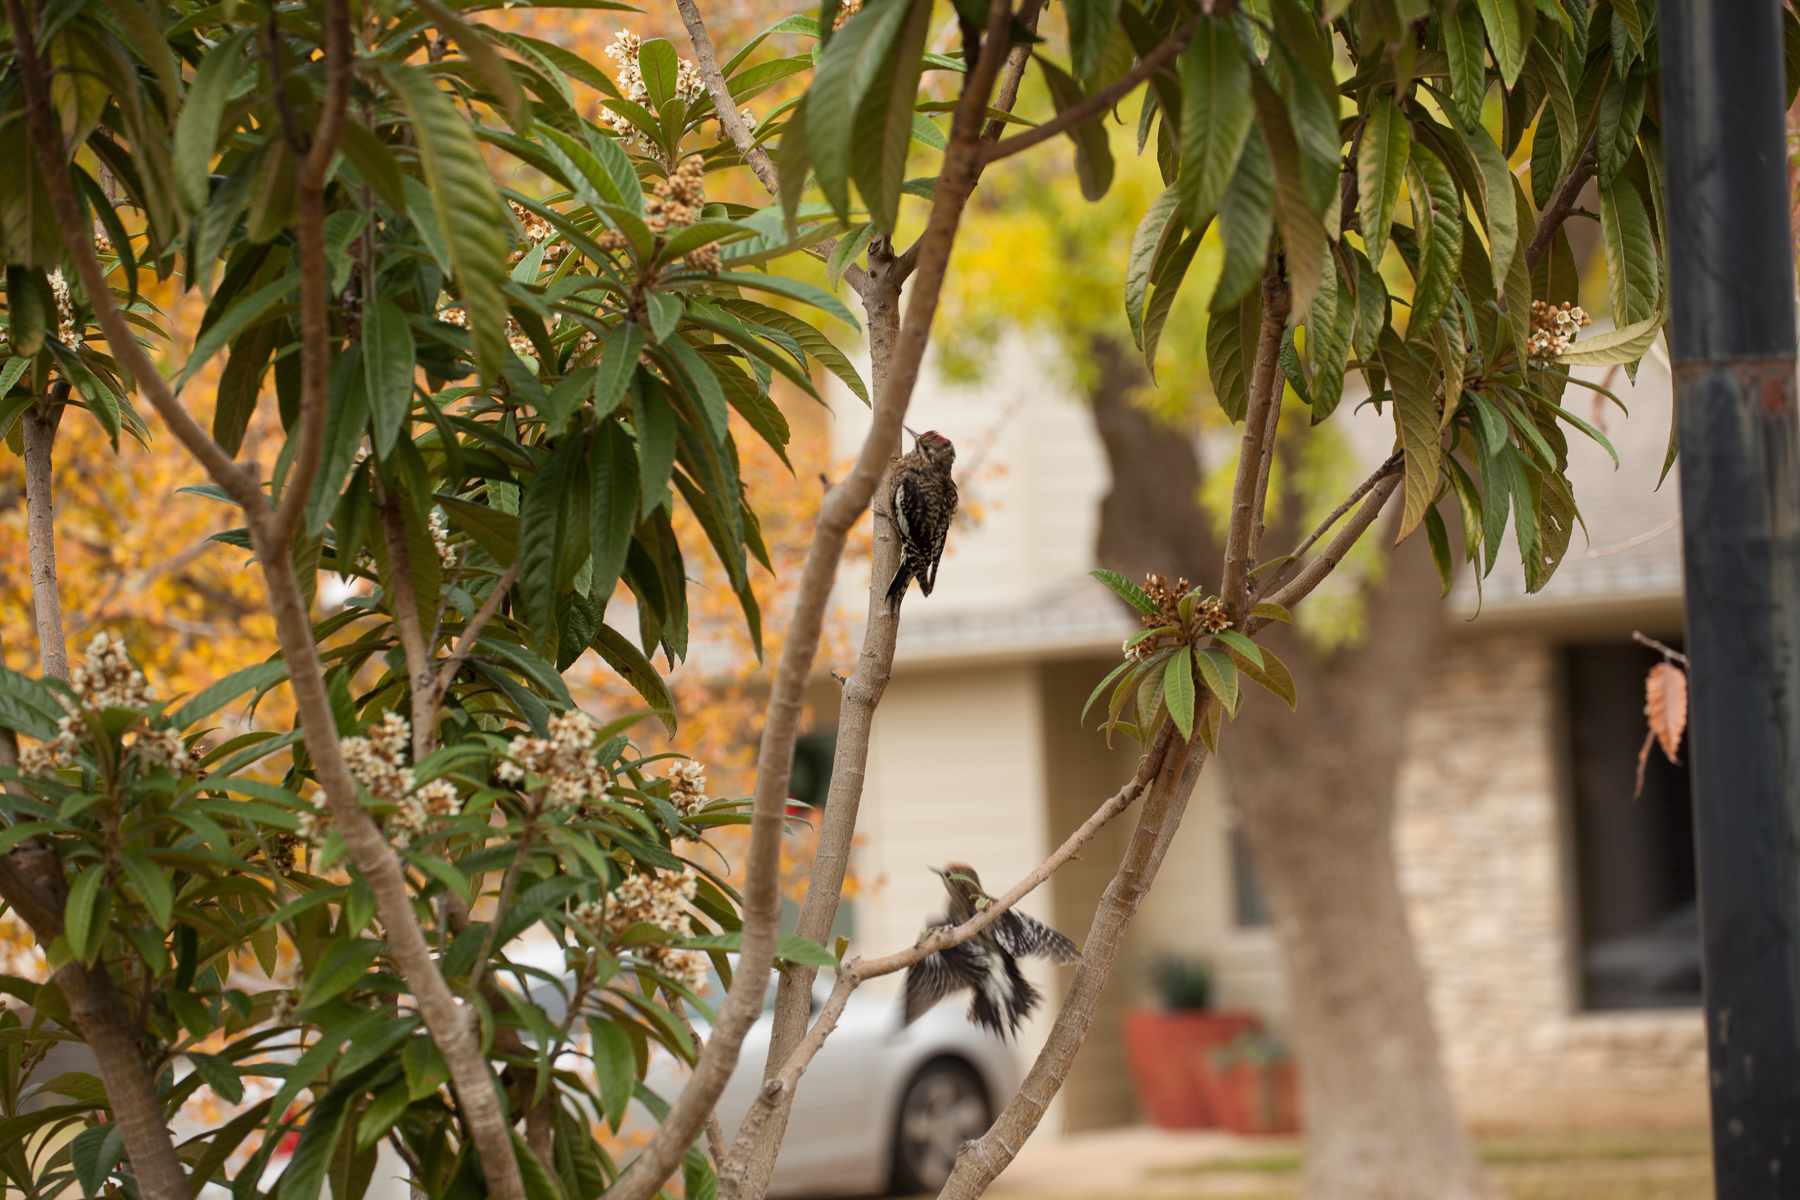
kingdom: Animalia
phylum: Chordata
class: Aves
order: Piciformes
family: Picidae
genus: Sphyrapicus
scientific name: Sphyrapicus varius
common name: Yellow-bellied sapsucker
